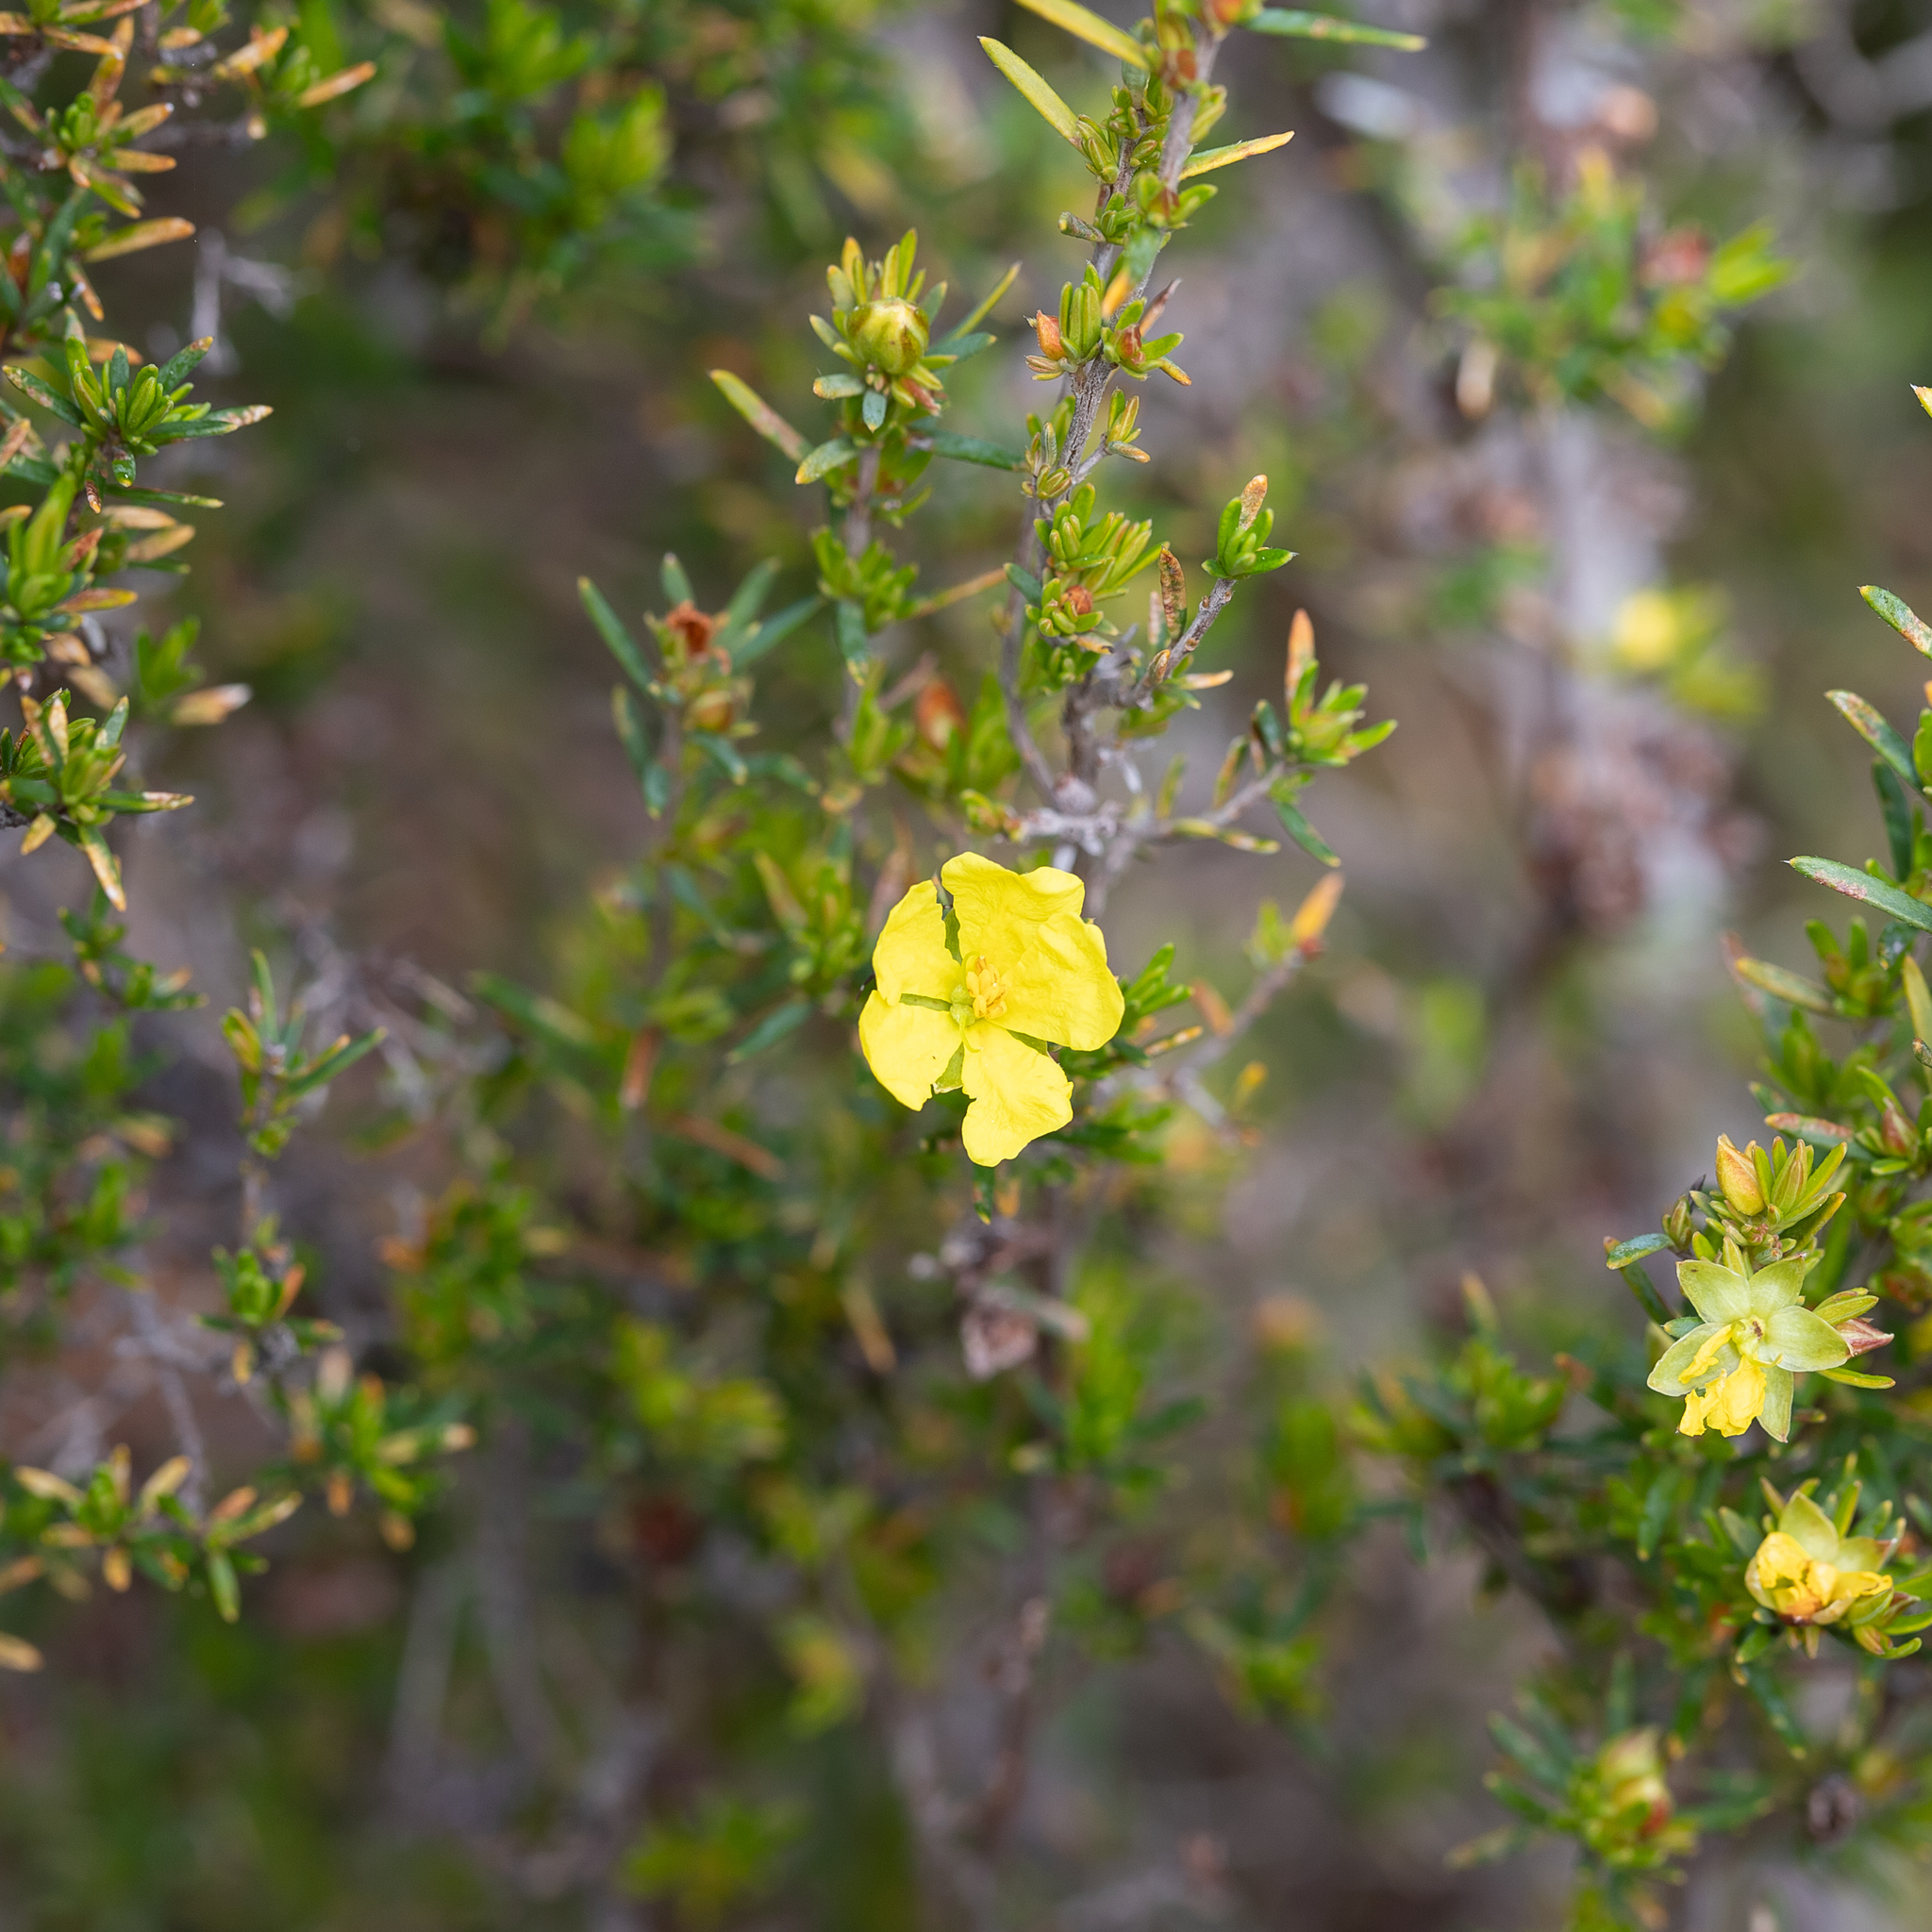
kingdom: Plantae
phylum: Tracheophyta
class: Magnoliopsida
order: Dilleniales
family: Dilleniaceae
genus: Hibbertia
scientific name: Hibbertia riparia
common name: Erect guinea-flower
